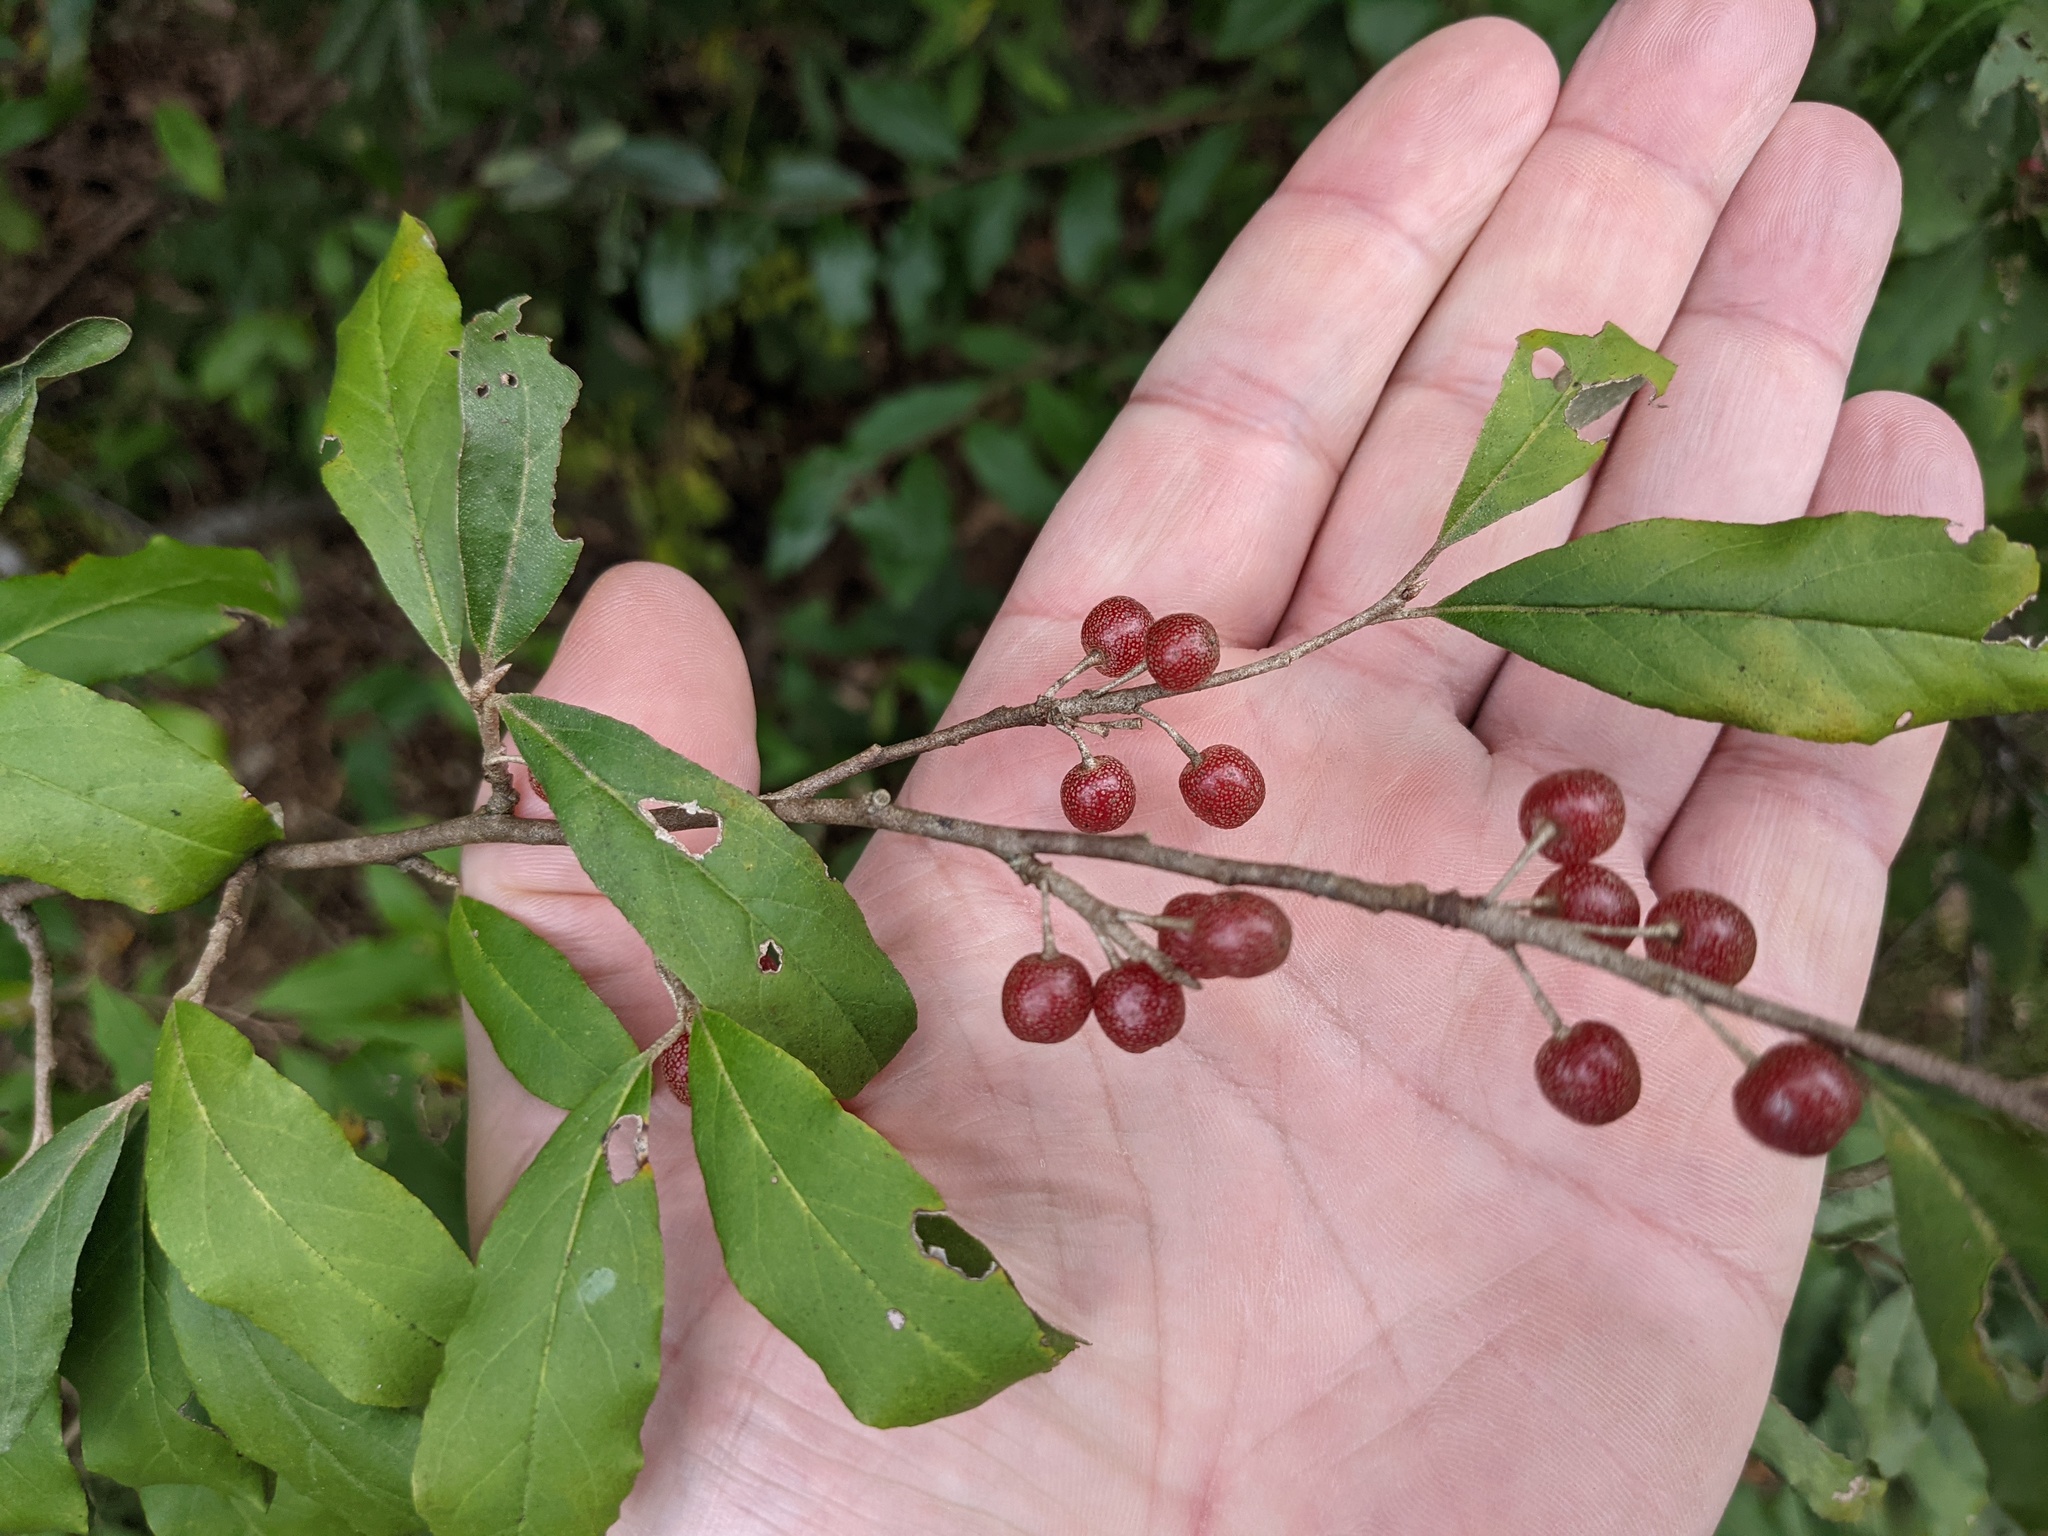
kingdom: Plantae
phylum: Tracheophyta
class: Magnoliopsida
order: Rosales
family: Elaeagnaceae
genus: Elaeagnus
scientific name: Elaeagnus umbellata
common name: Autumn olive
